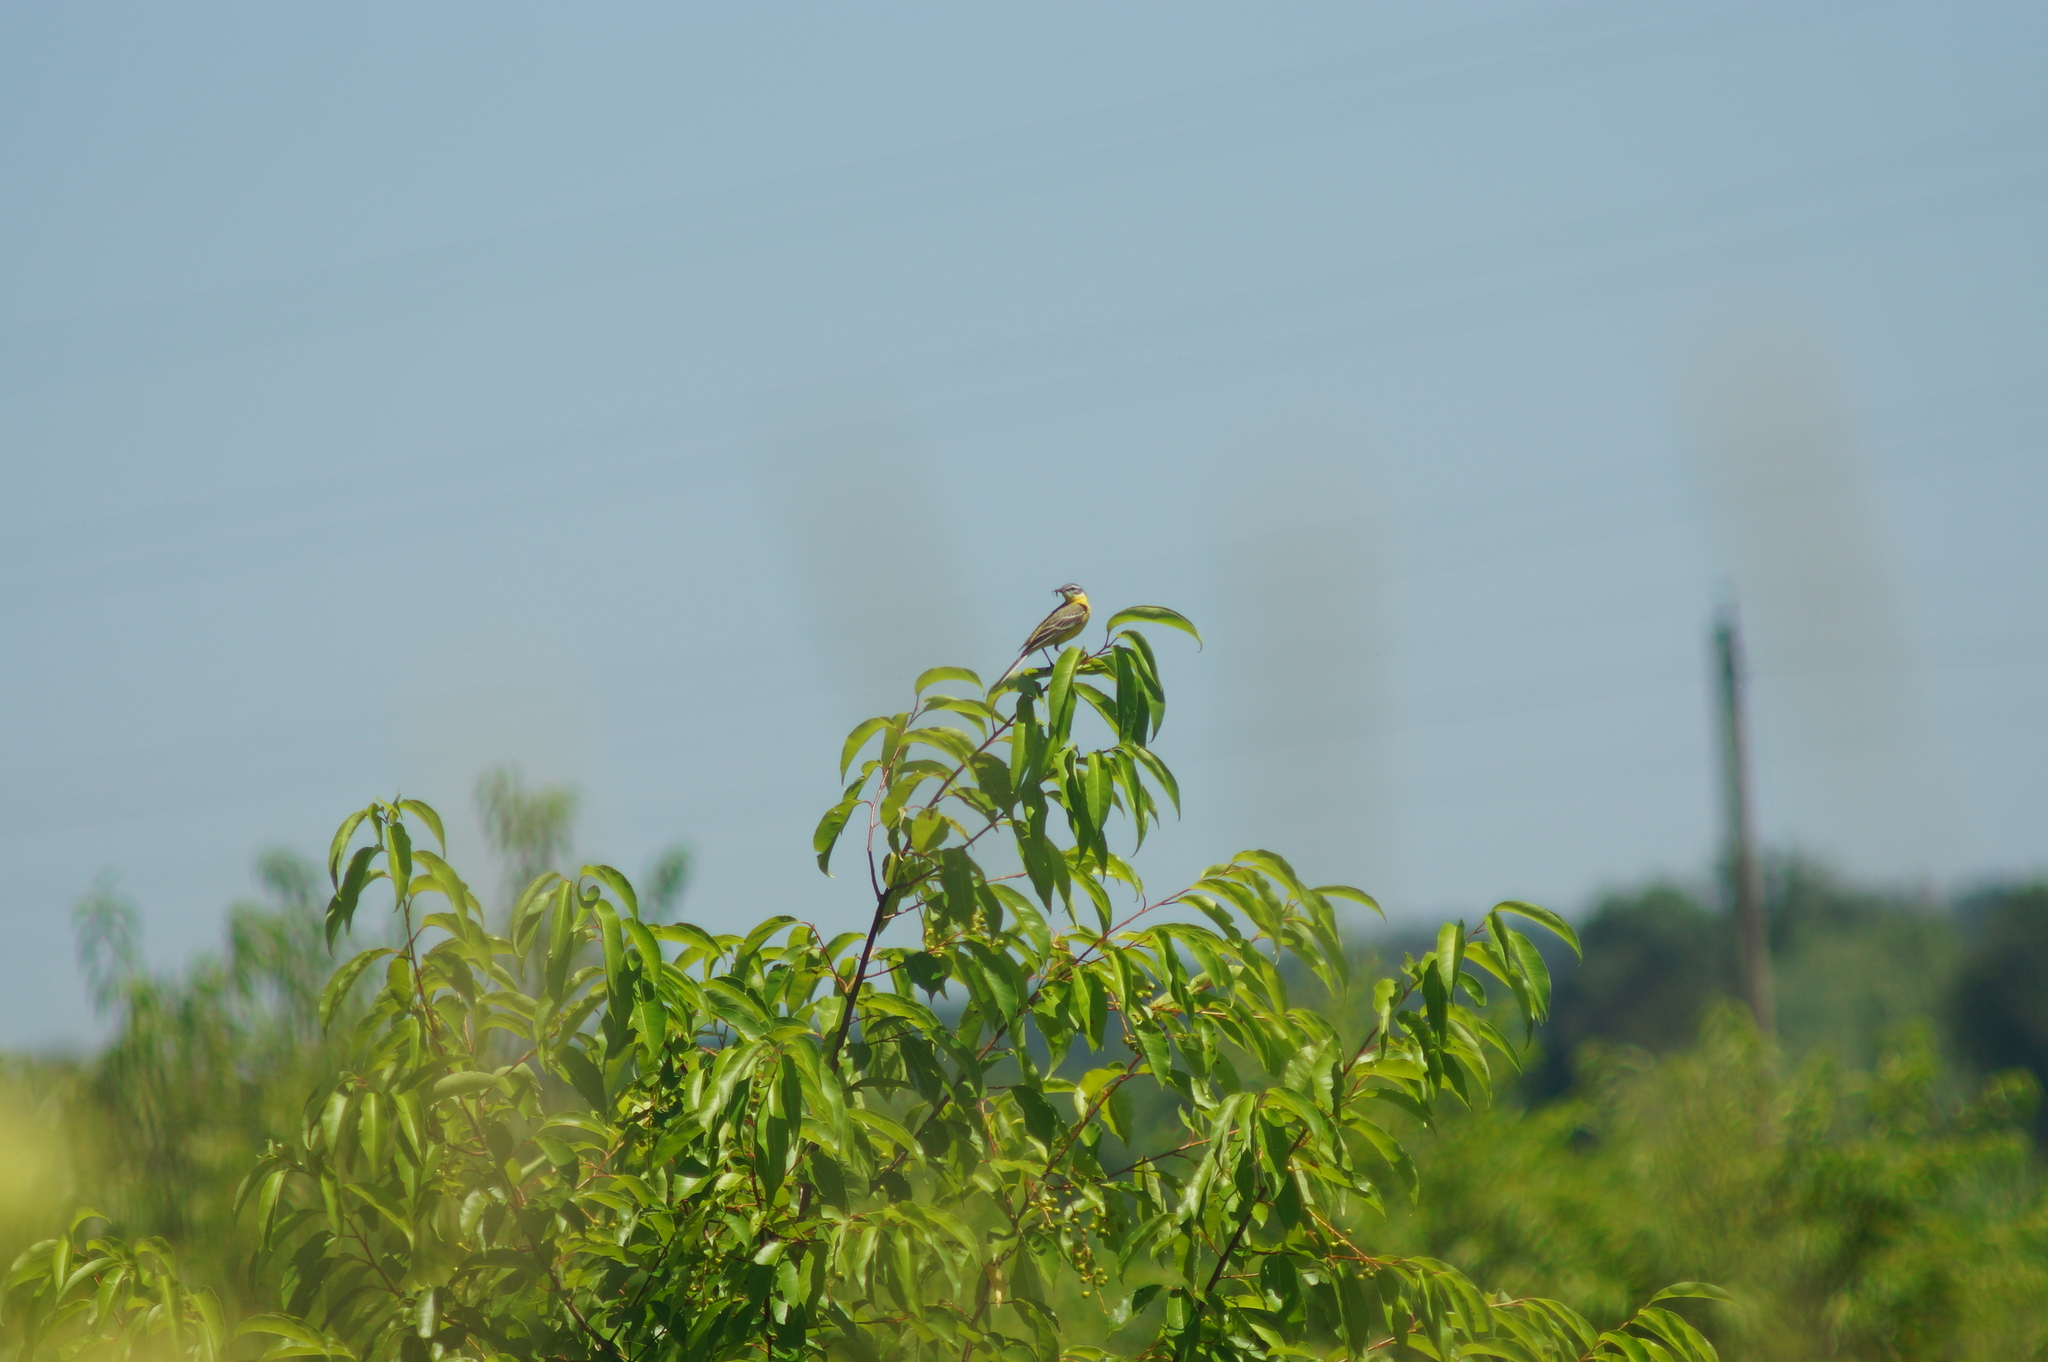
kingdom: Animalia
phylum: Chordata
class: Aves
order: Passeriformes
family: Motacillidae
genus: Motacilla
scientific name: Motacilla flava
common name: Western yellow wagtail
